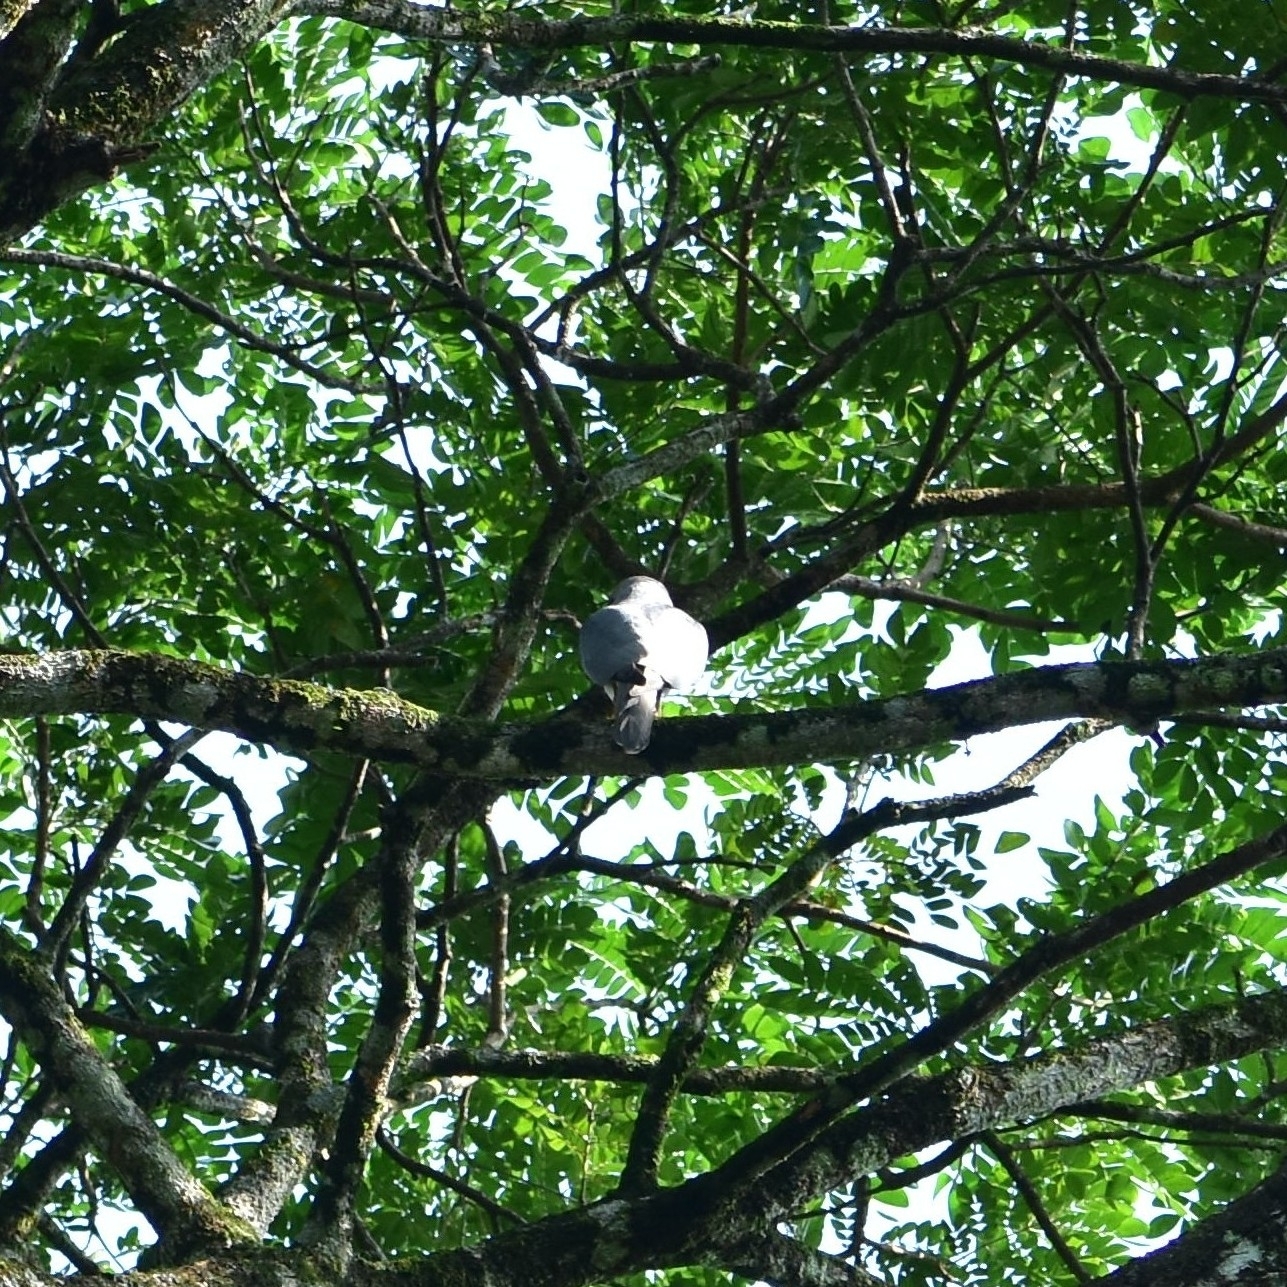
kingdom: Animalia
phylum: Chordata
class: Aves
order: Accipitriformes
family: Accipitridae
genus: Accipiter
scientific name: Accipiter badius
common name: Shikra
